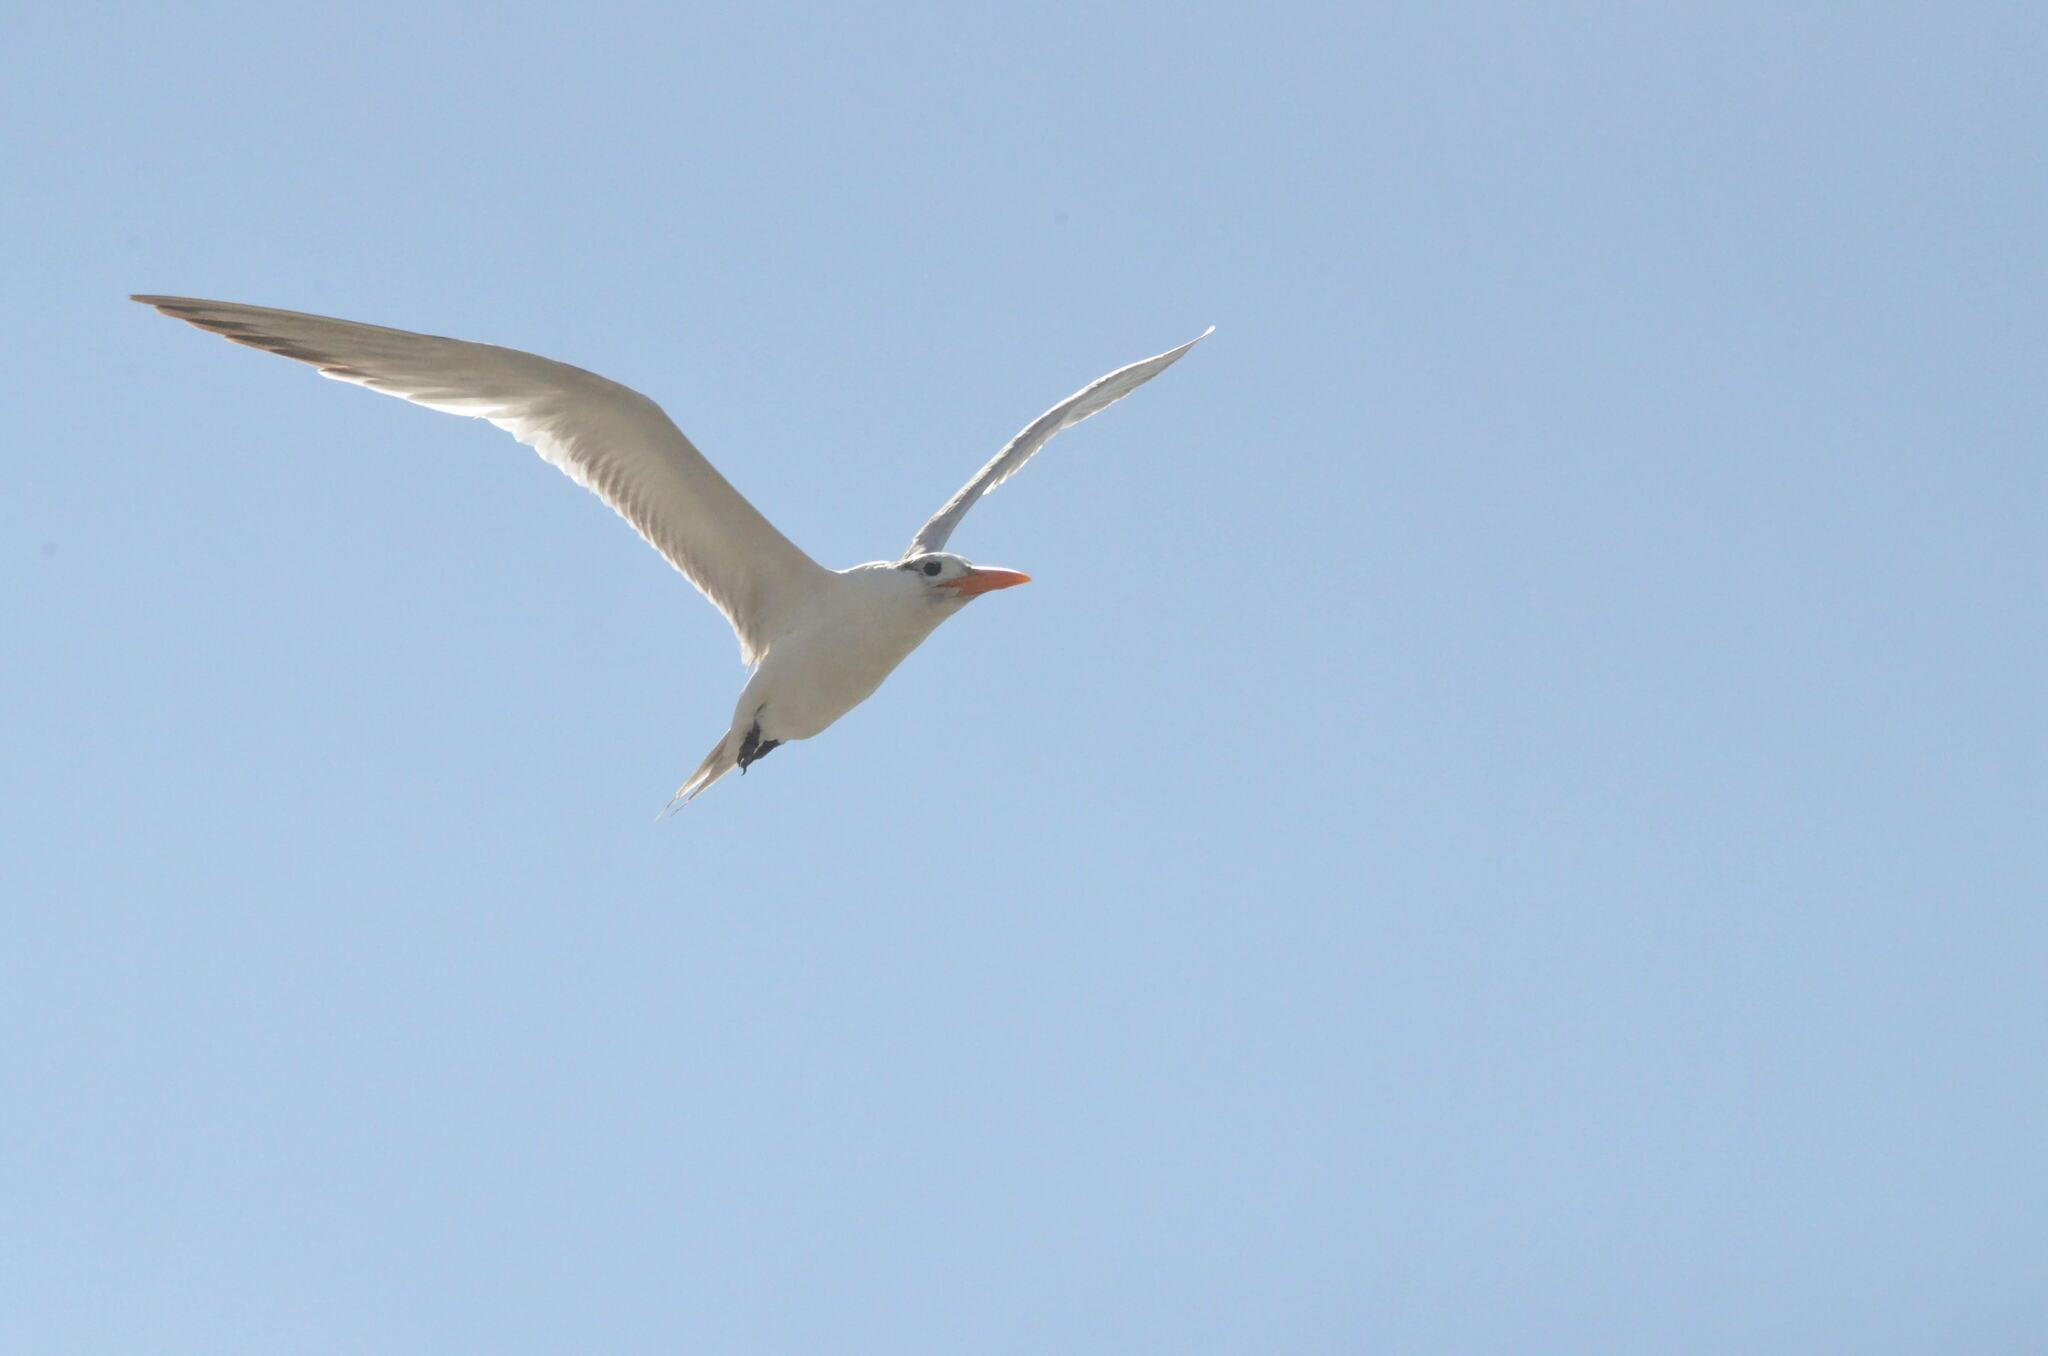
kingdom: Animalia
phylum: Chordata
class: Aves
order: Charadriiformes
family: Laridae
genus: Thalasseus
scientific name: Thalasseus maximus
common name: Royal tern
